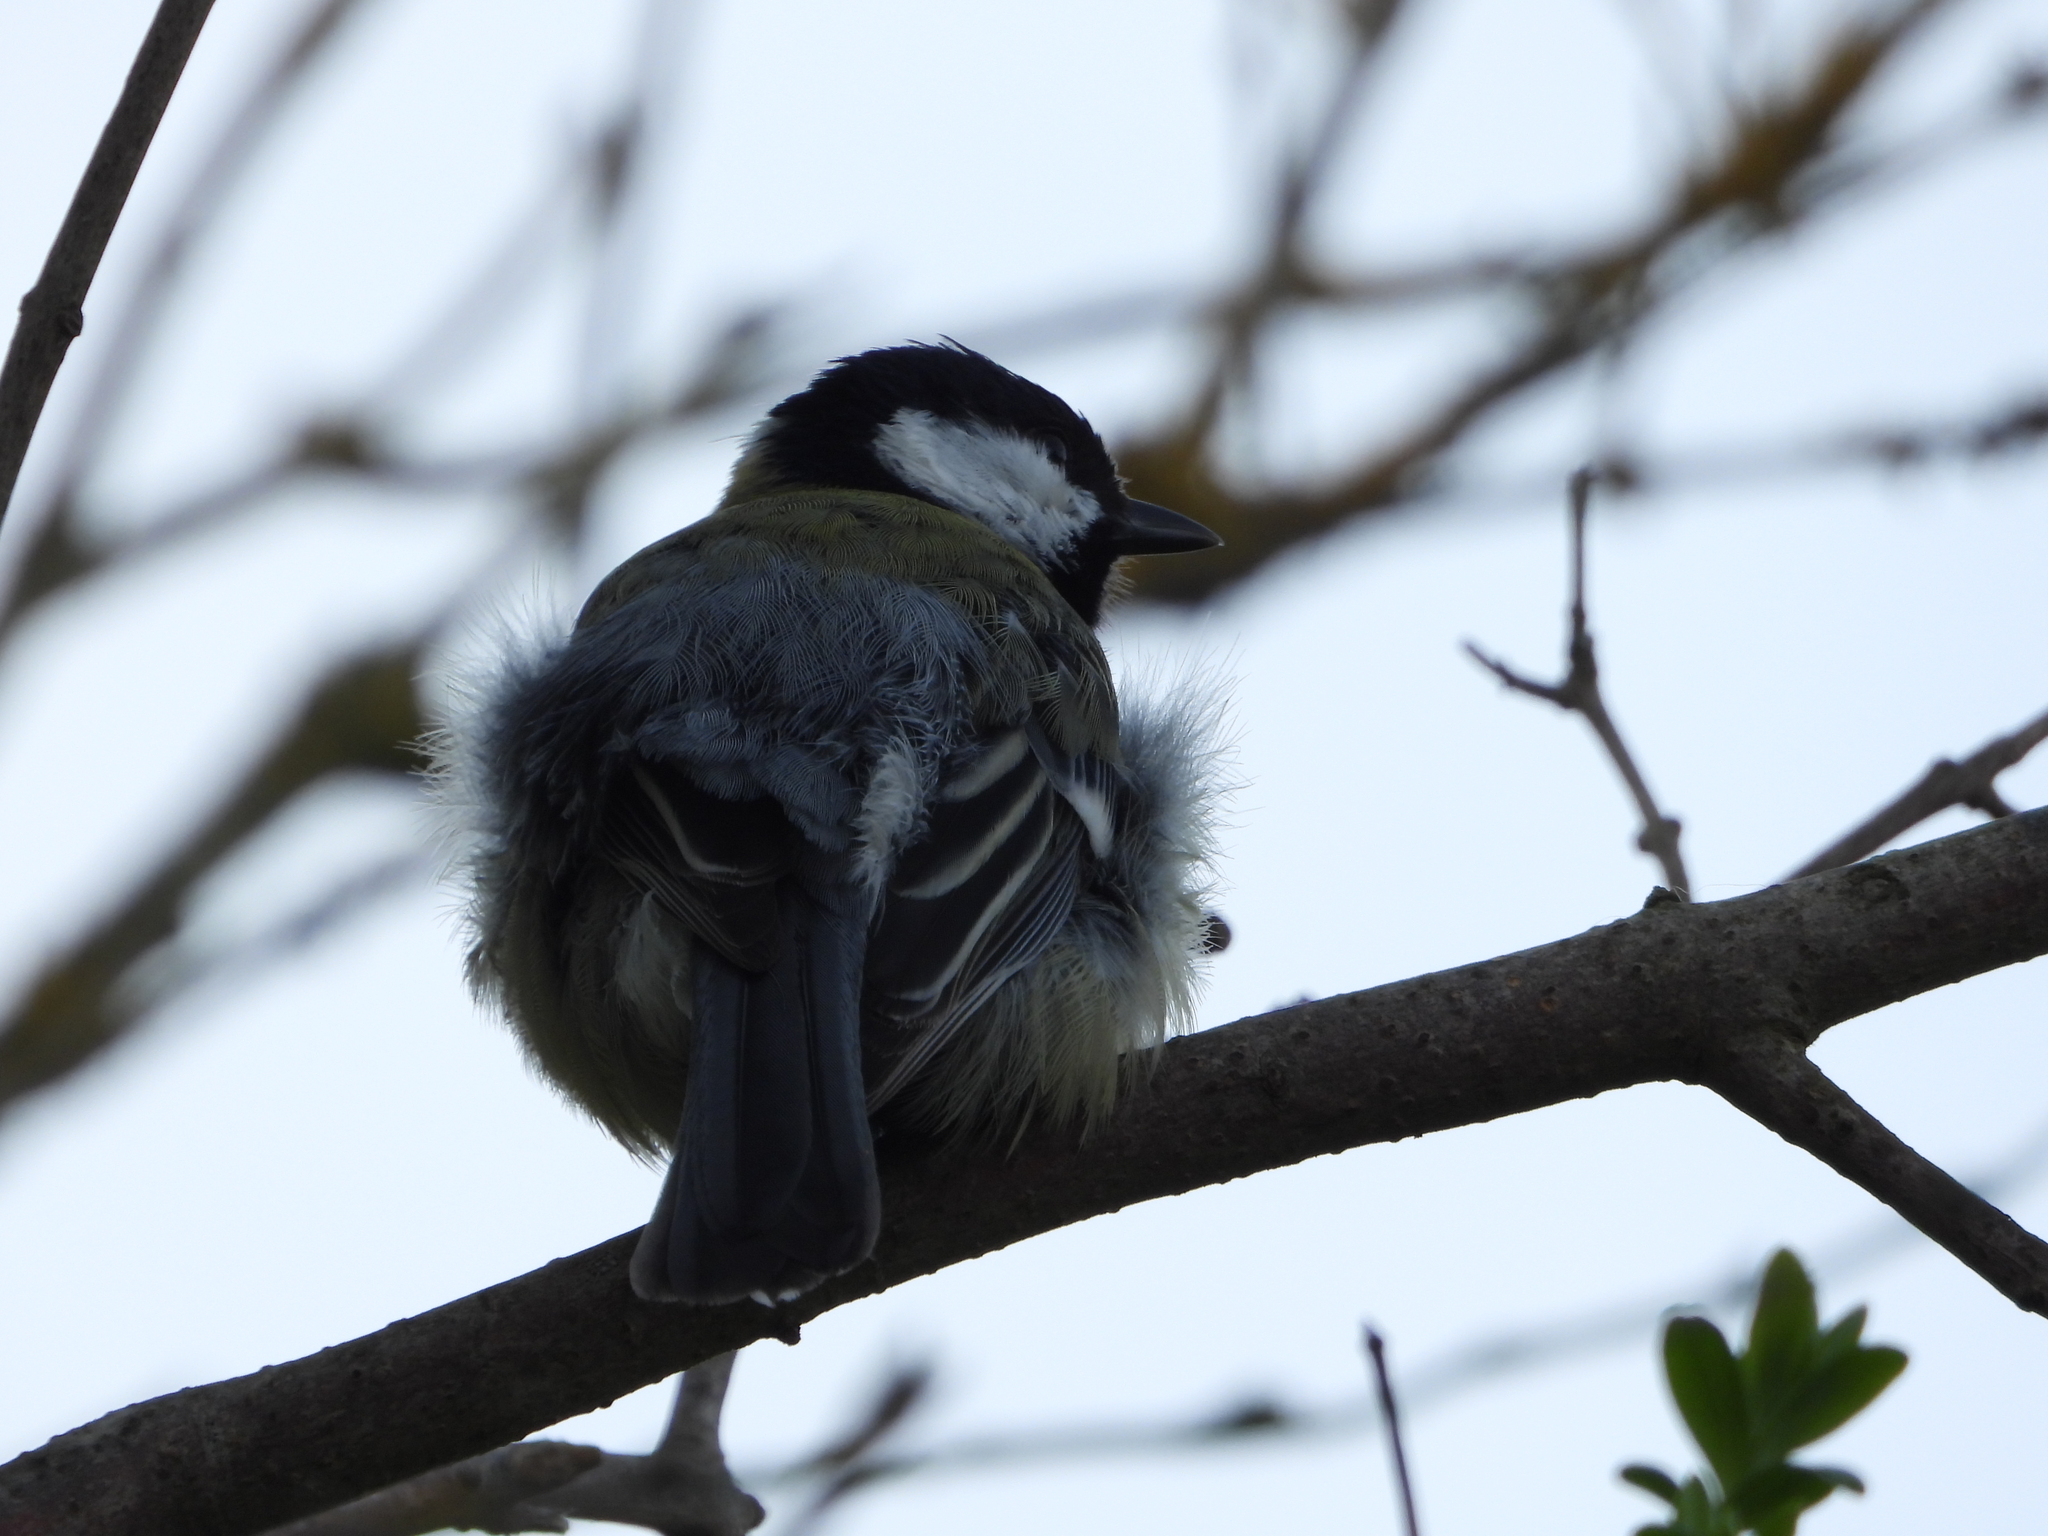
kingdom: Animalia
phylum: Chordata
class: Aves
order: Passeriformes
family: Paridae
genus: Parus
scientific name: Parus major
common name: Great tit
